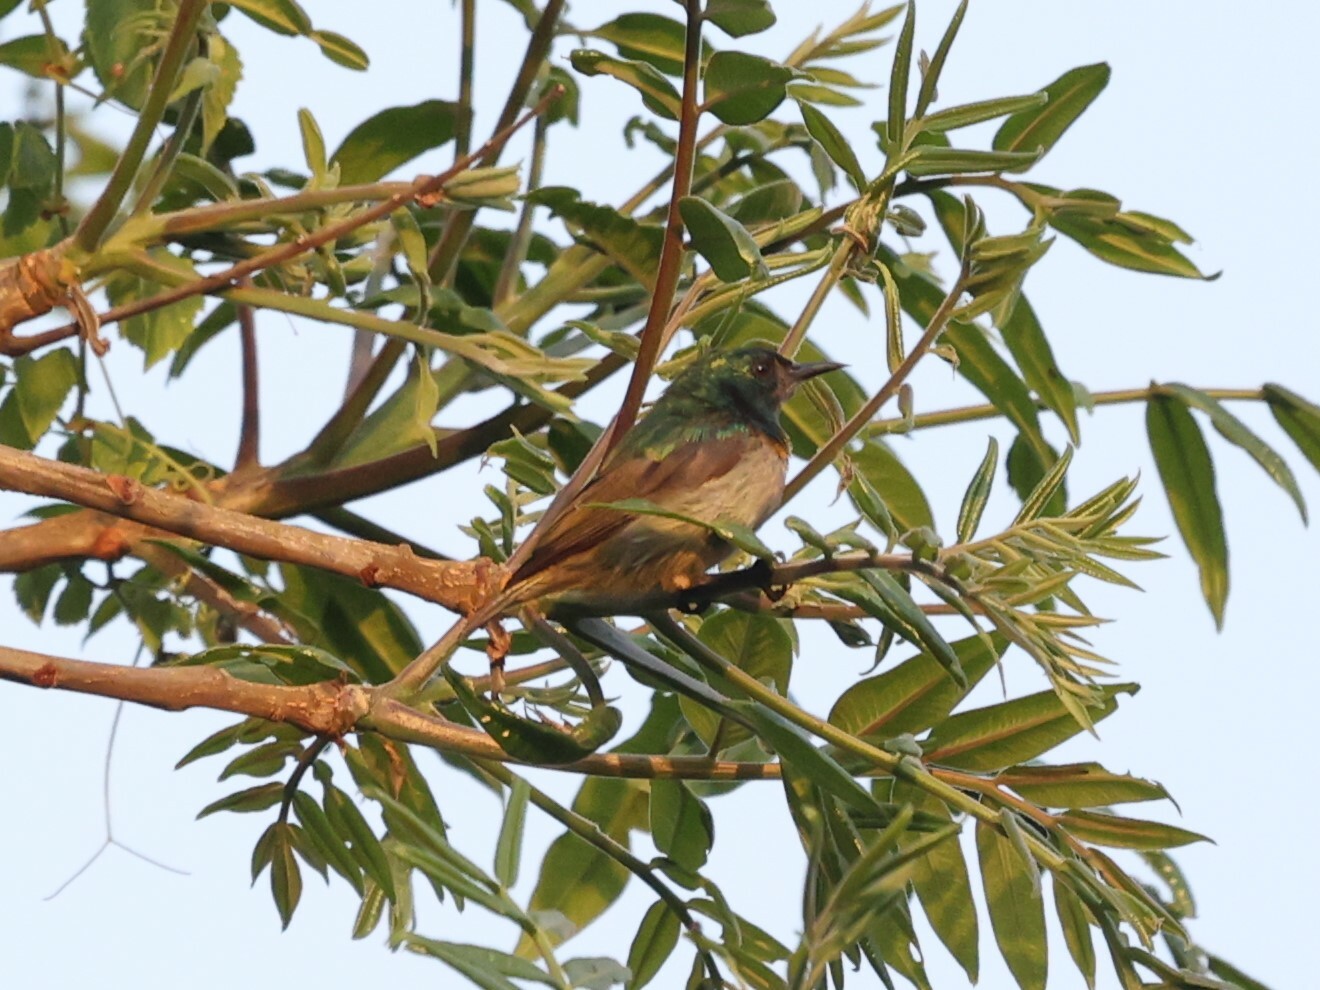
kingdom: Animalia
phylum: Chordata
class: Aves
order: Passeriformes
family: Nectariniidae
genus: Anthreptes
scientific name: Anthreptes rectirostris
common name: Grey-chinned sunbird
